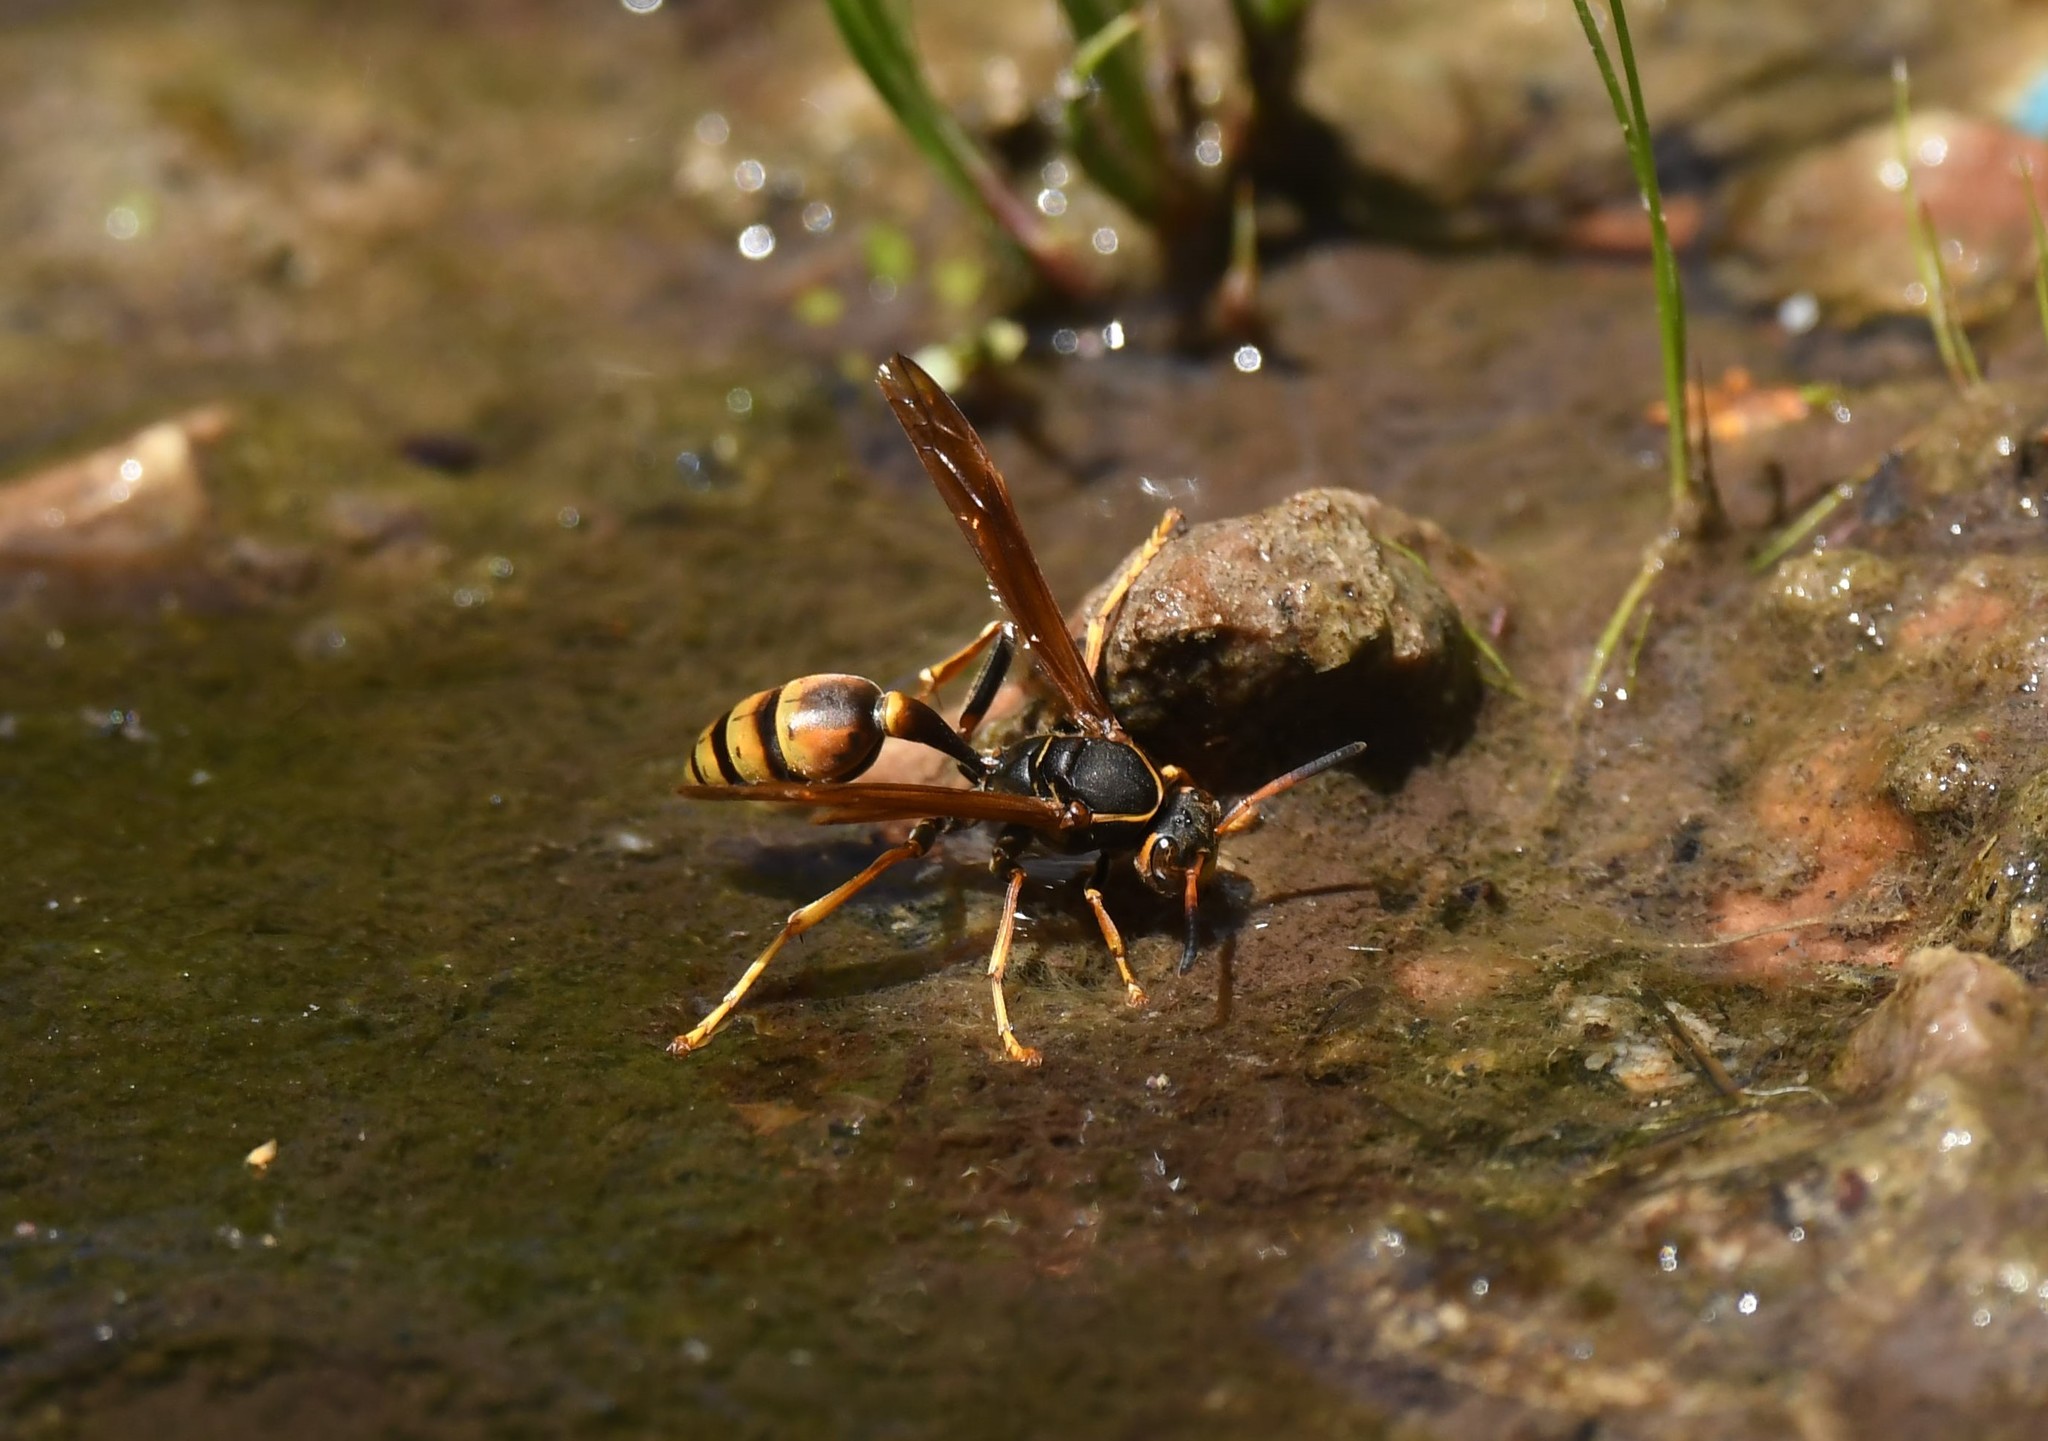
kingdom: Animalia
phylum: Arthropoda
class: Insecta
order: Hymenoptera
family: Vespidae
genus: Mischocyttarus
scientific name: Mischocyttarus flavitarsis
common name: Wasp
